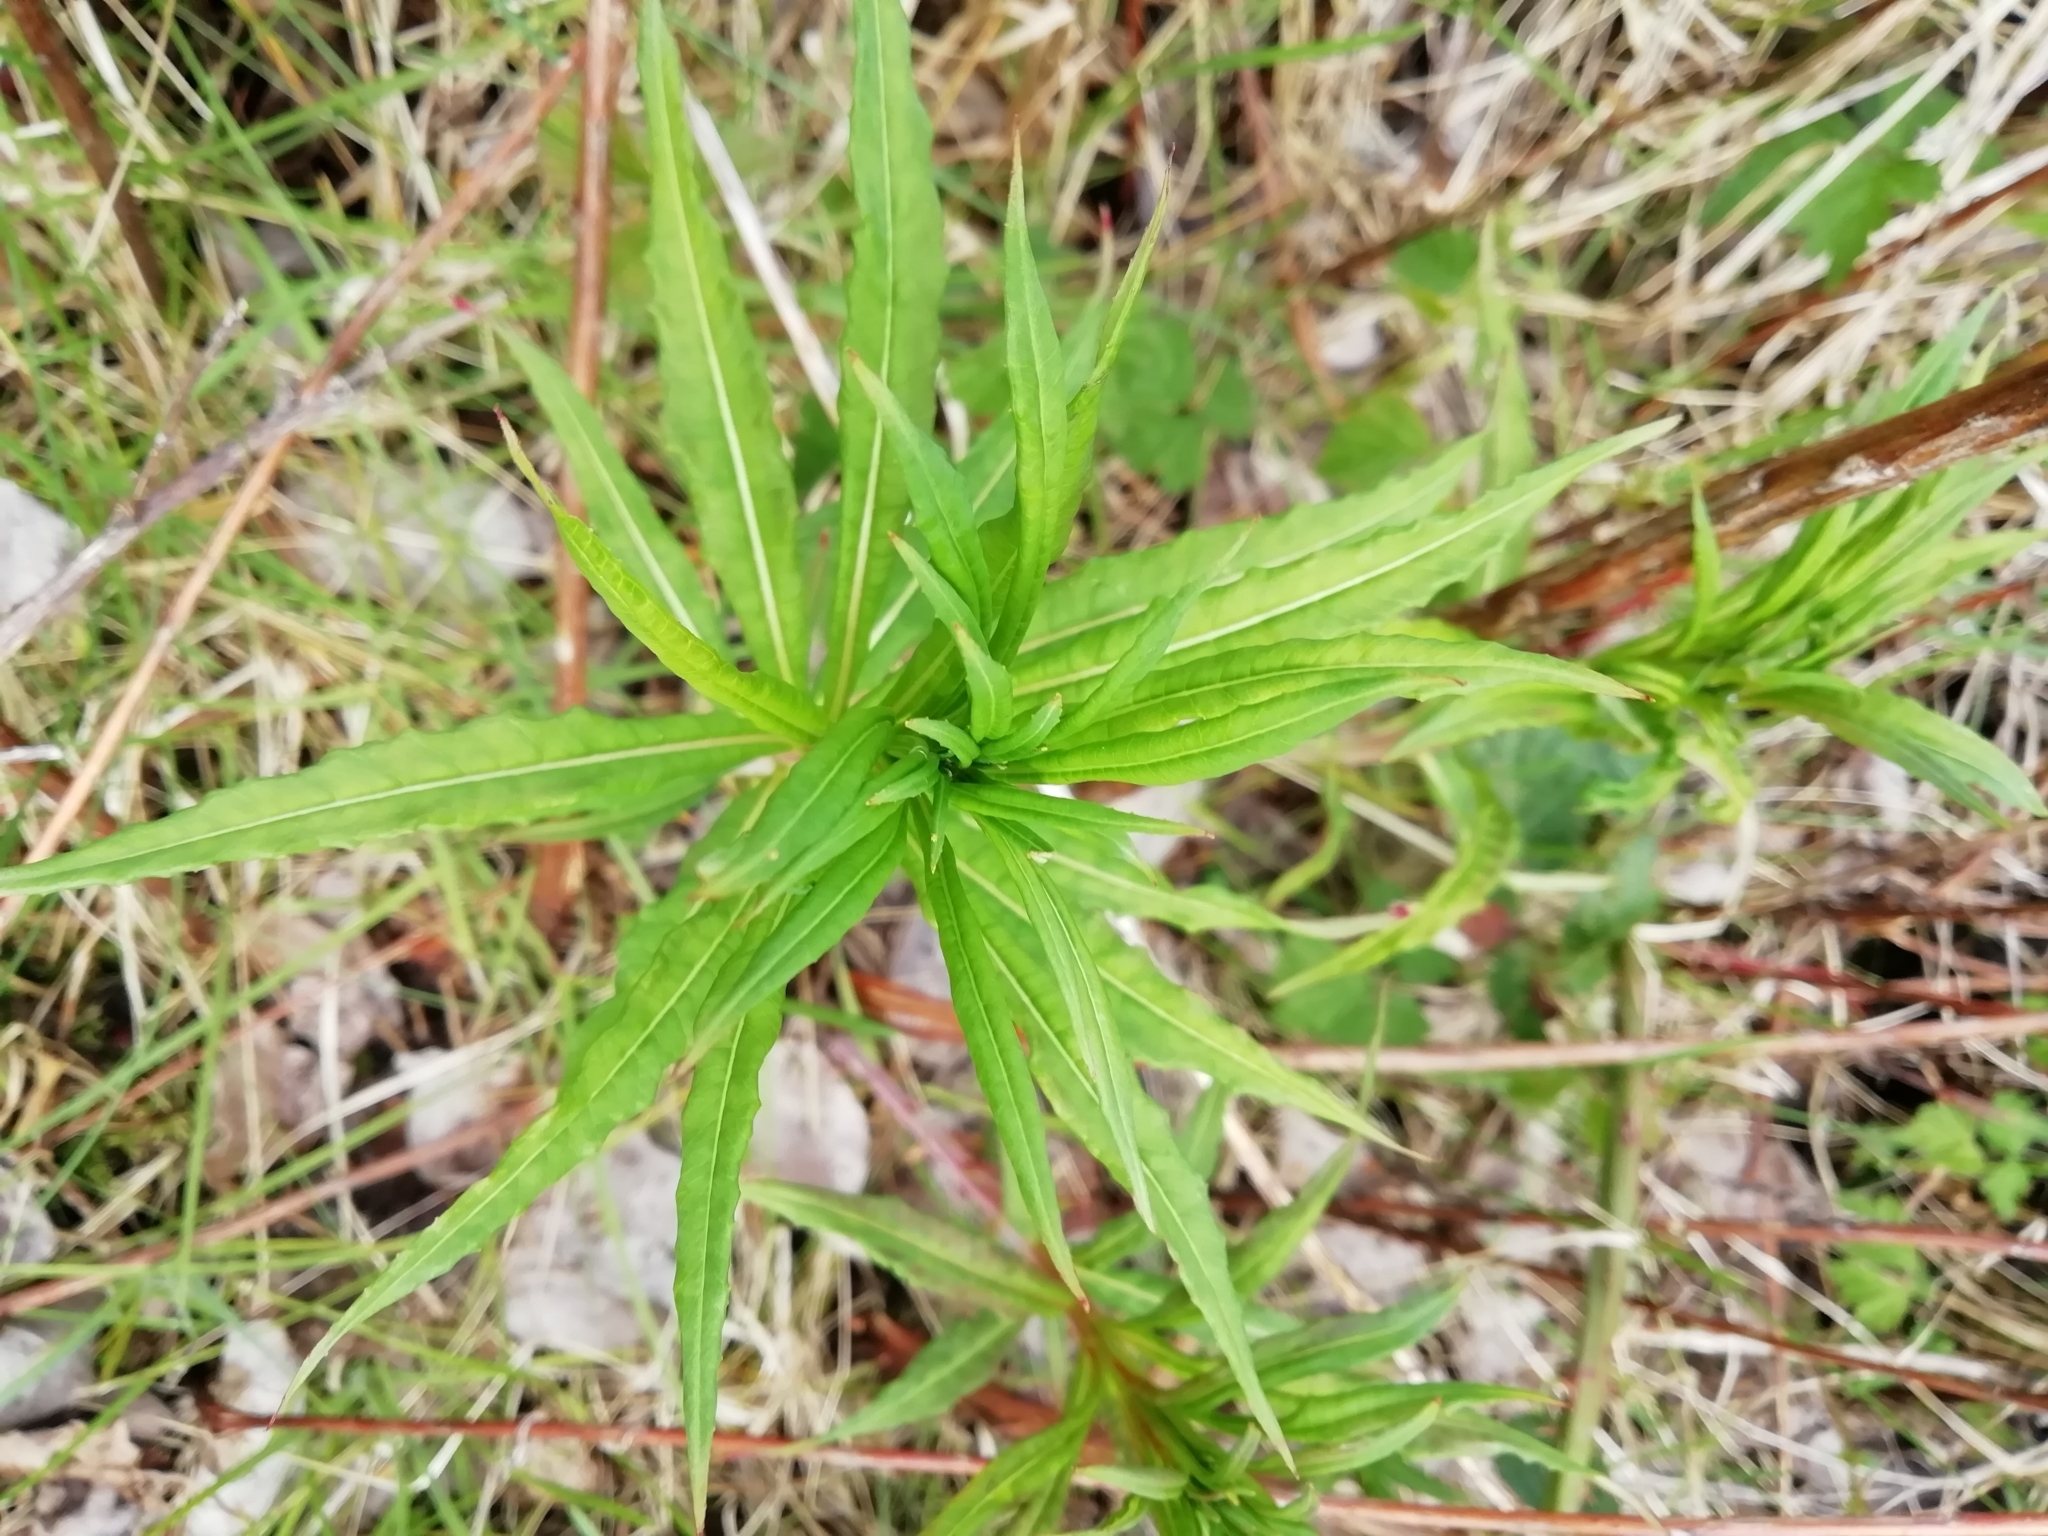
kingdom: Plantae
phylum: Tracheophyta
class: Magnoliopsida
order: Myrtales
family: Onagraceae
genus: Chamaenerion
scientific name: Chamaenerion angustifolium
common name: Fireweed
